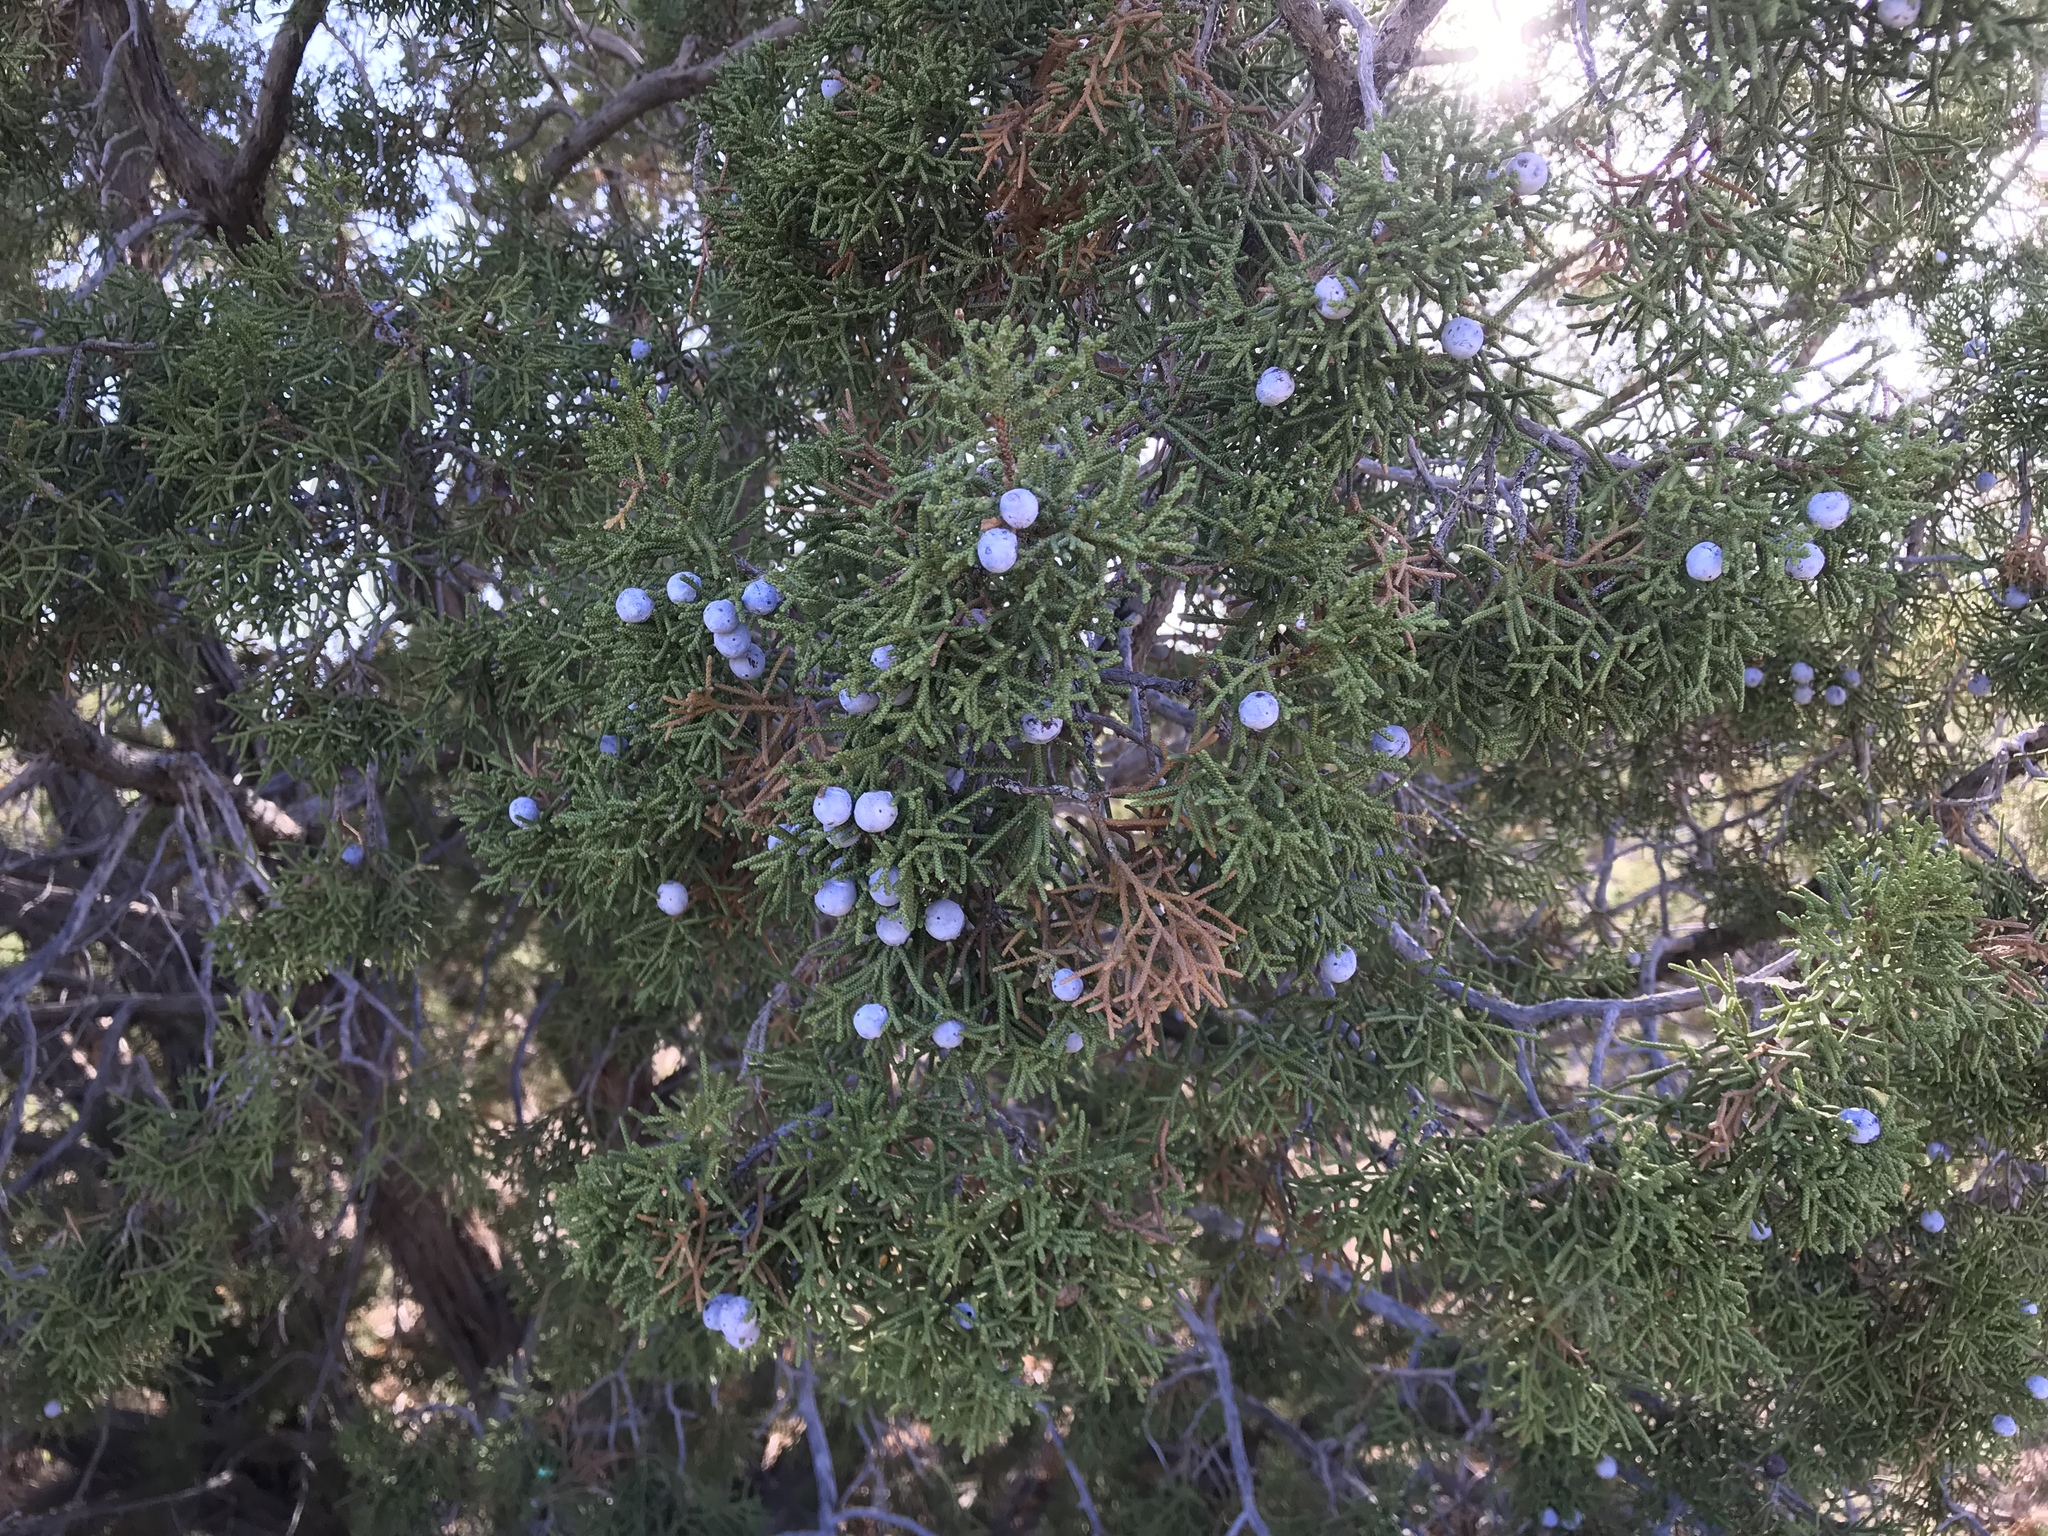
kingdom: Plantae
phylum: Tracheophyta
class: Pinopsida
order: Pinales
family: Cupressaceae
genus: Juniperus
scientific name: Juniperus californica
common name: California juniper
